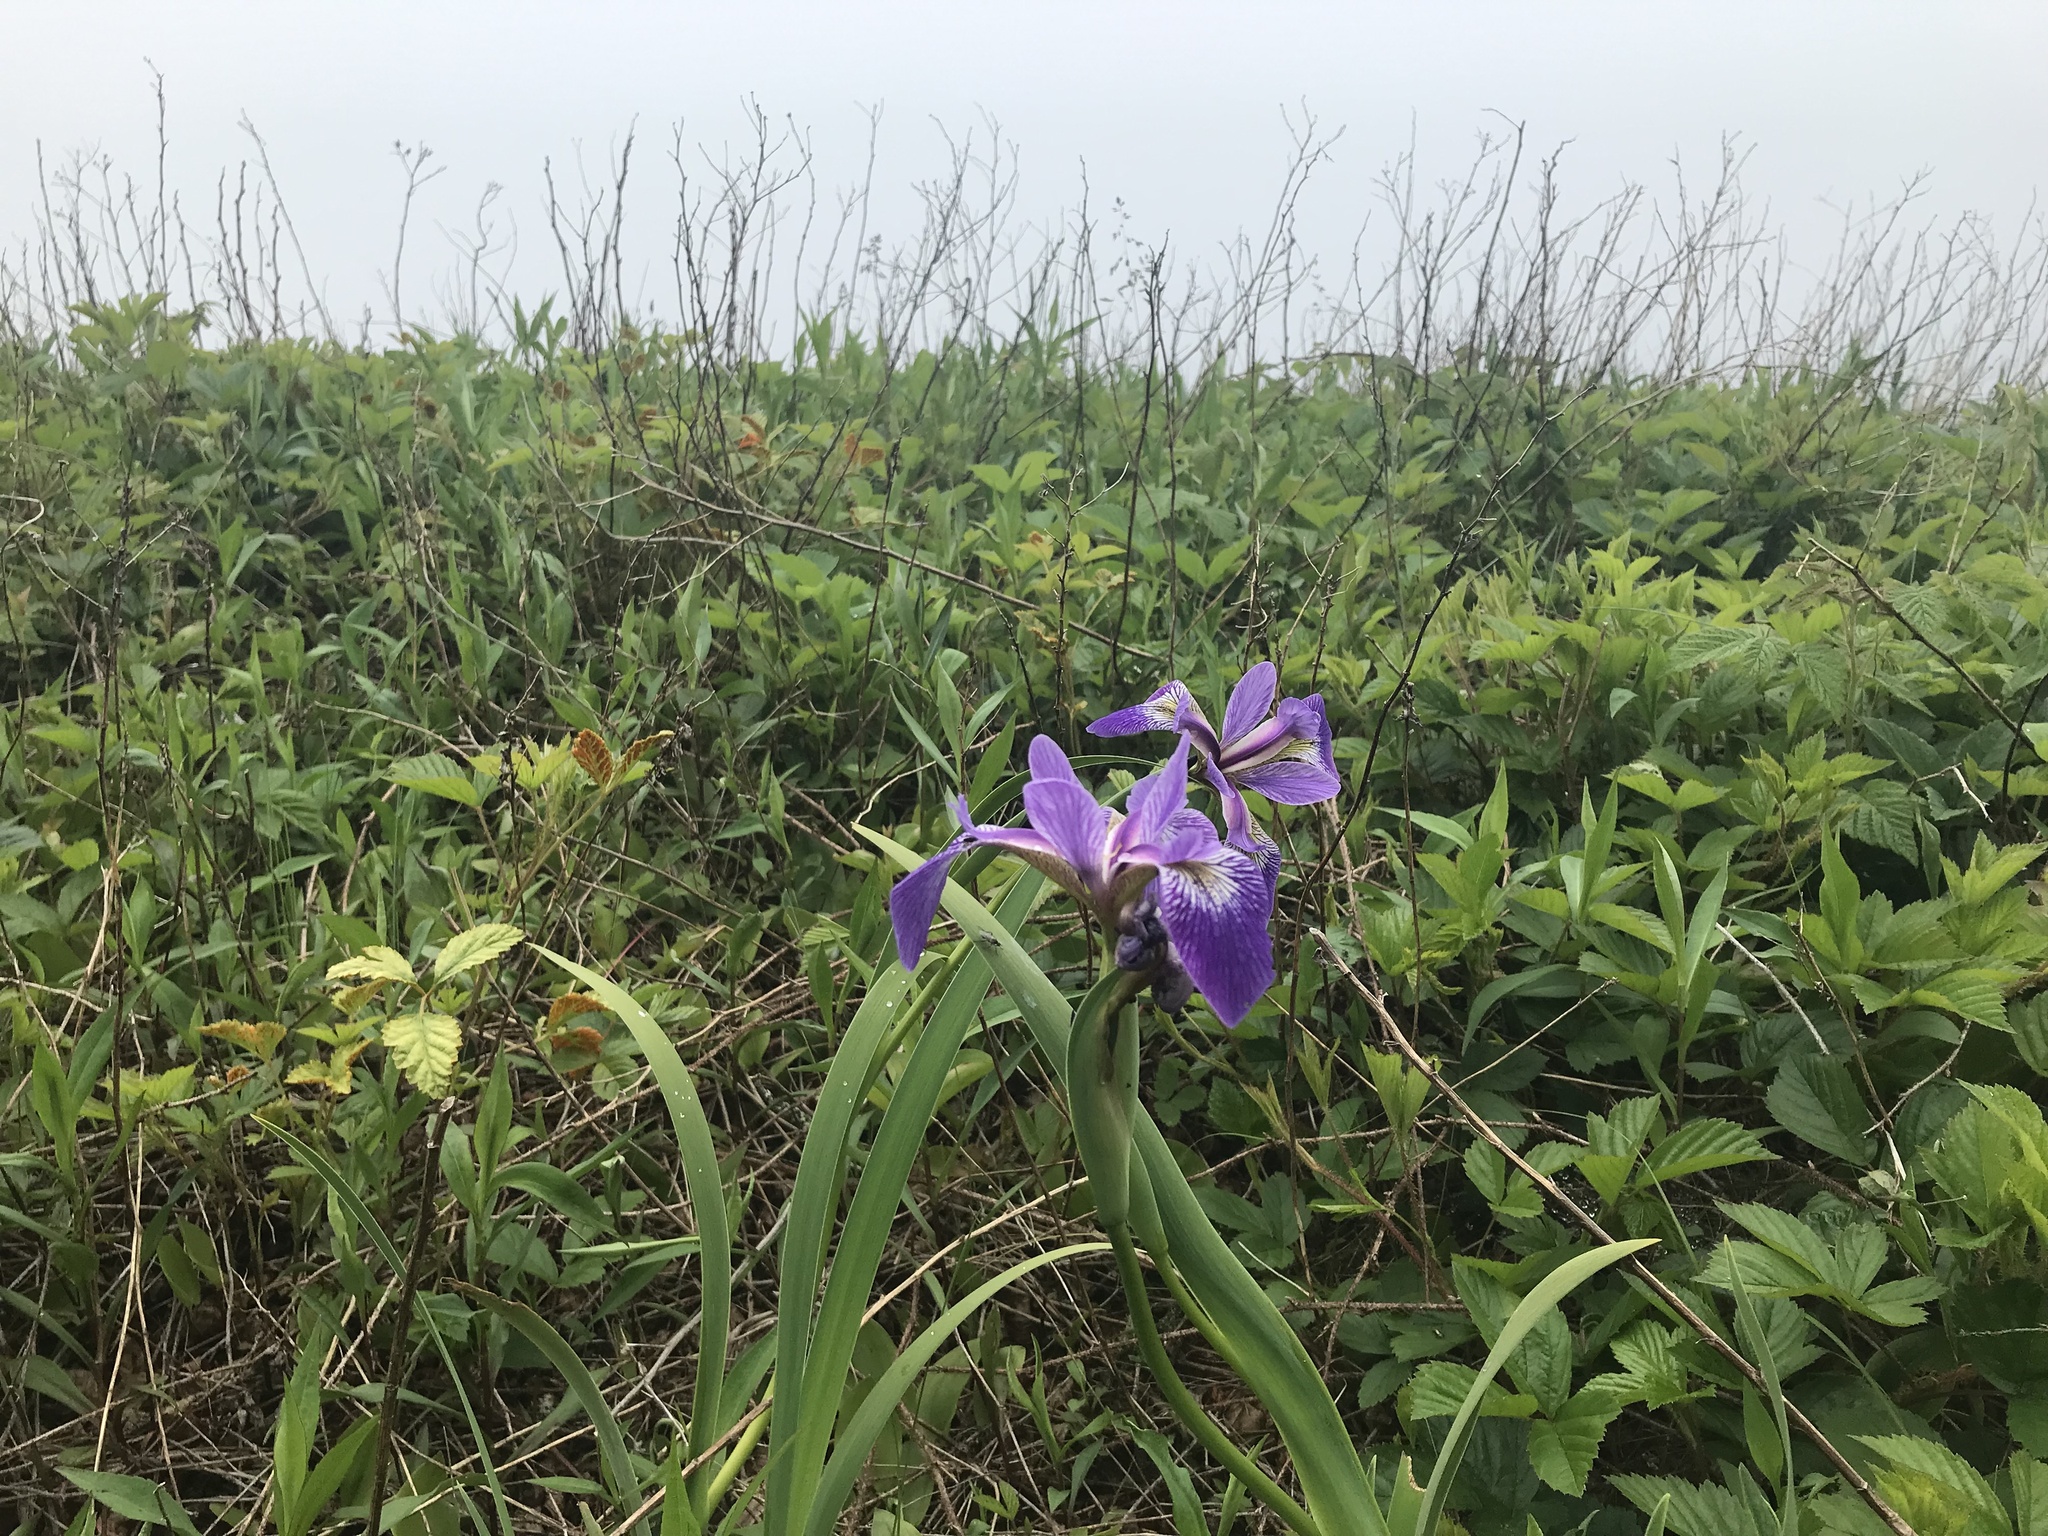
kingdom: Plantae
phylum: Tracheophyta
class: Liliopsida
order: Asparagales
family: Iridaceae
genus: Iris
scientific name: Iris versicolor
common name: Purple iris
